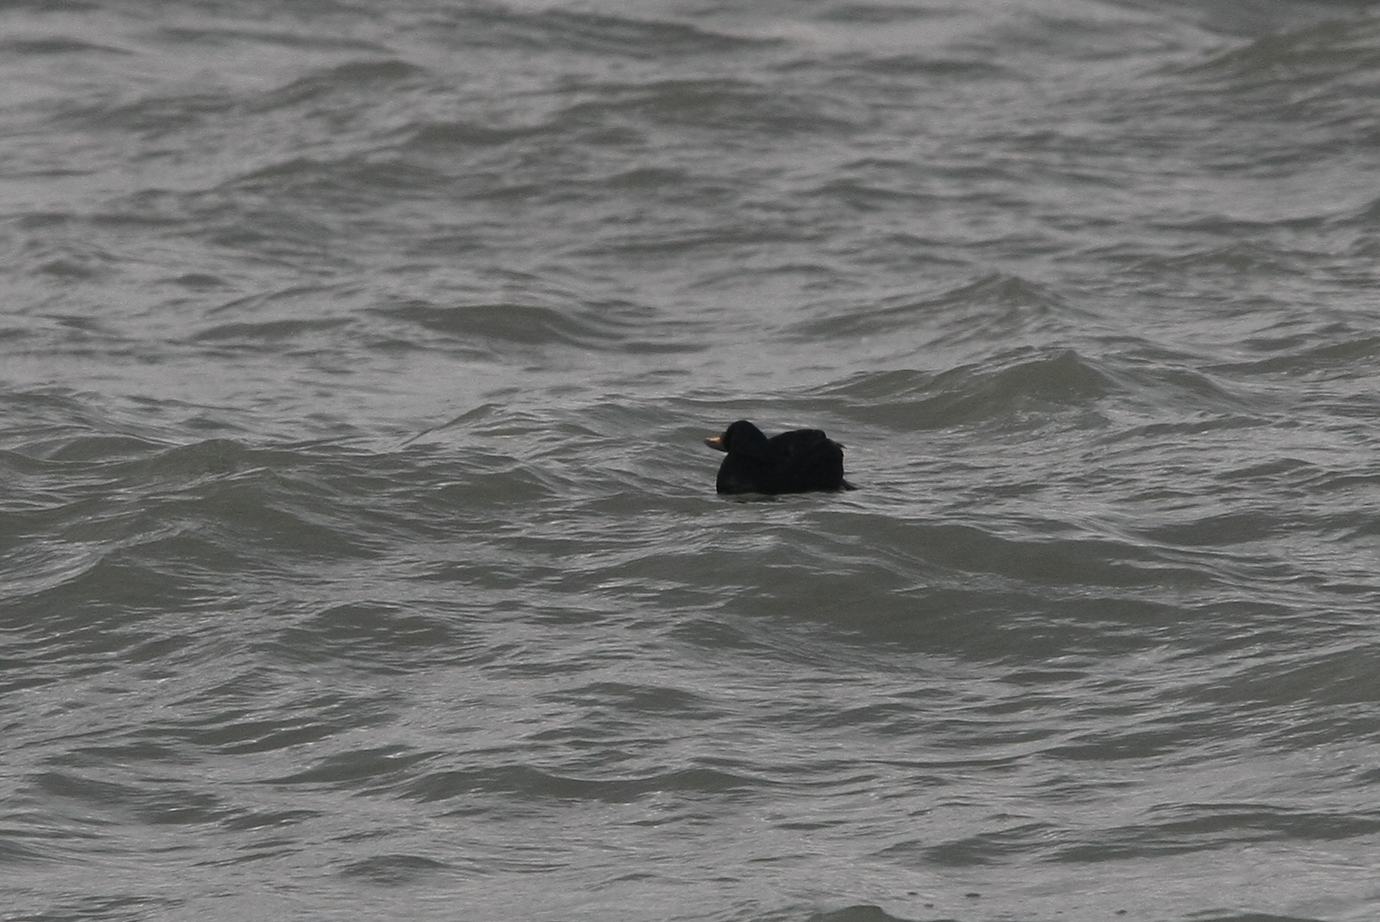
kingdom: Animalia
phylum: Chordata
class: Aves
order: Anseriformes
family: Anatidae
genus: Melanitta
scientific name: Melanitta nigra
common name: Common scoter
